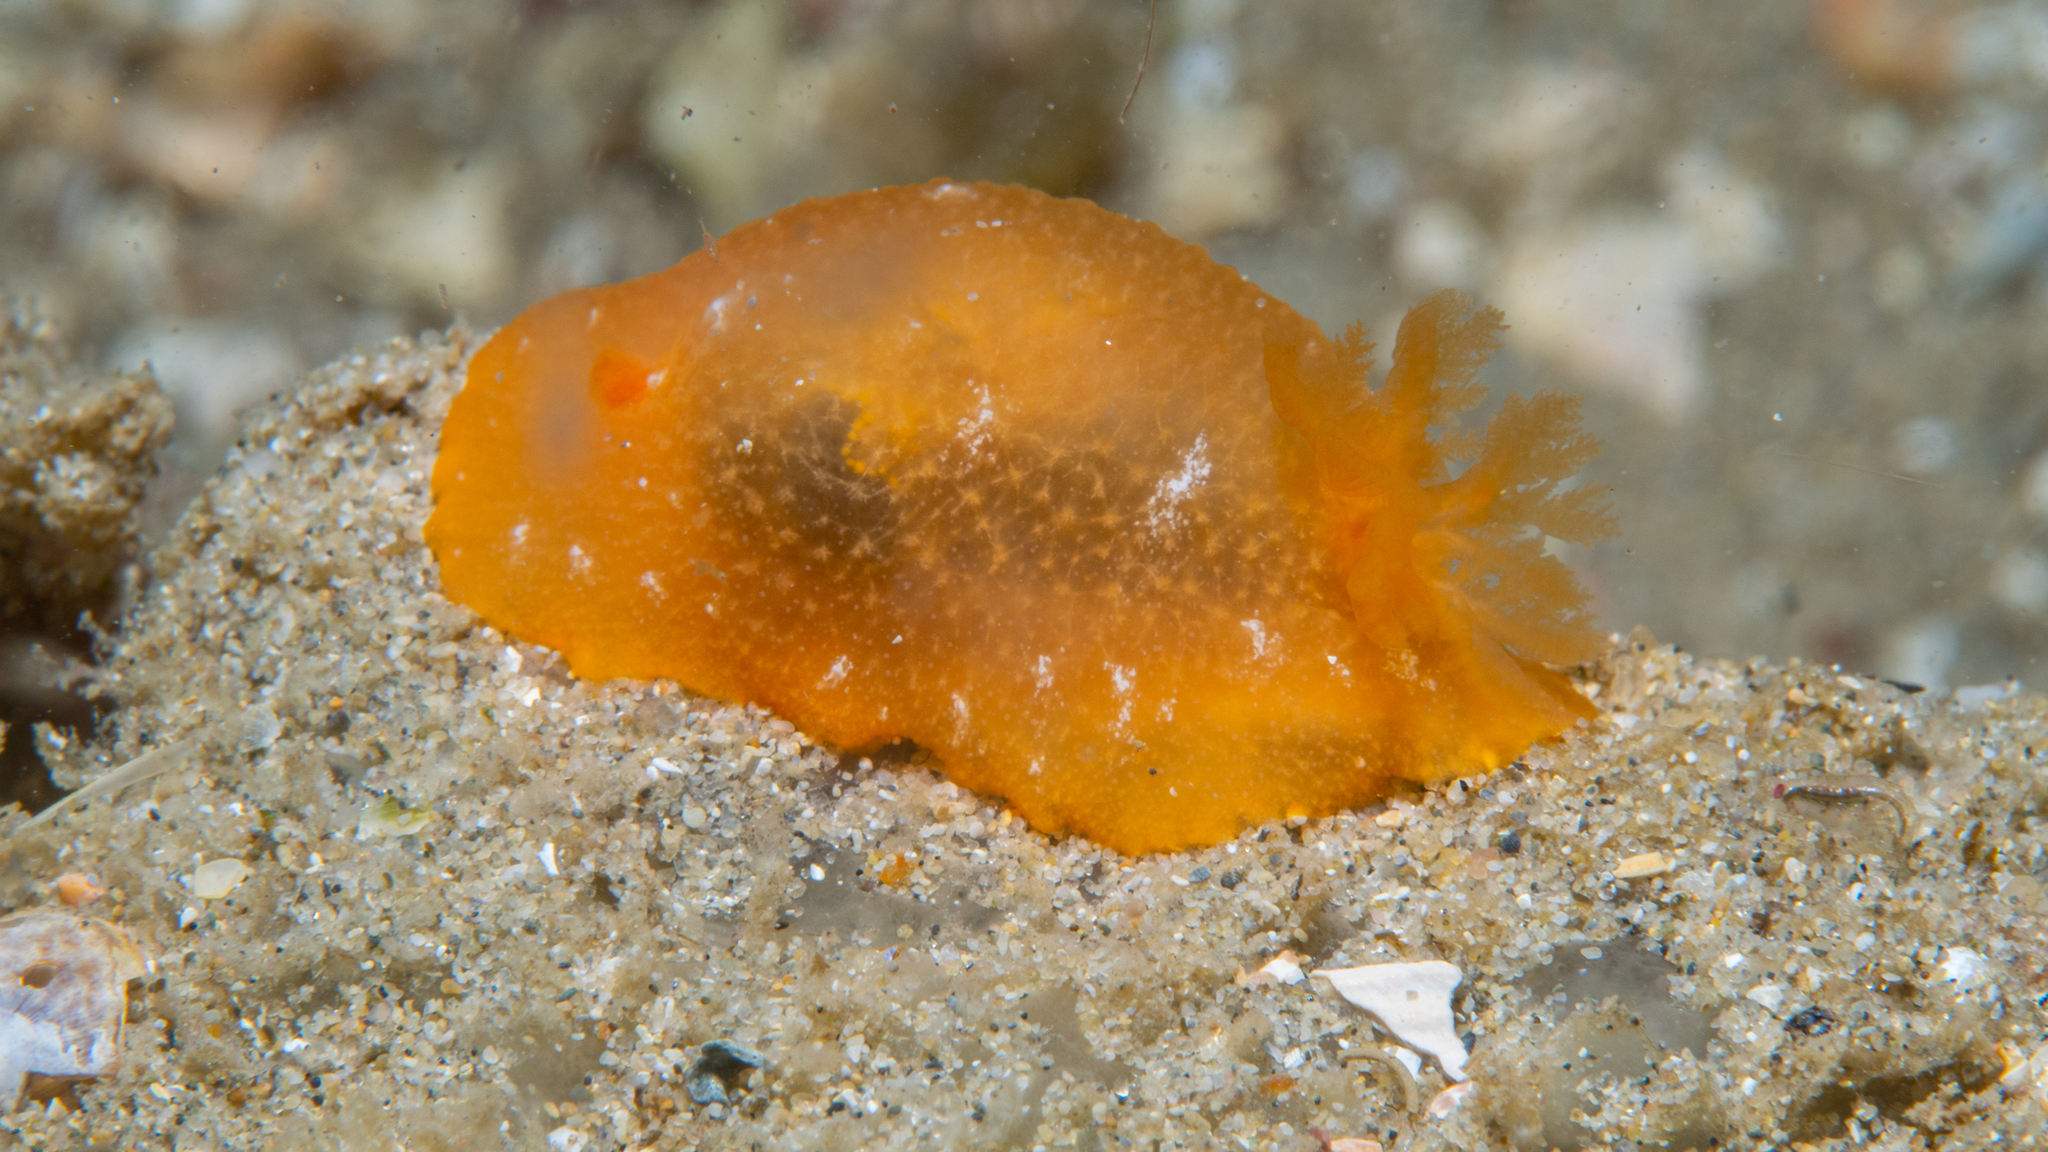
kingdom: Animalia
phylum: Mollusca
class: Gastropoda
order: Nudibranchia
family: Dendrodorididae
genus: Doriopsilla
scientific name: Doriopsilla aurea
